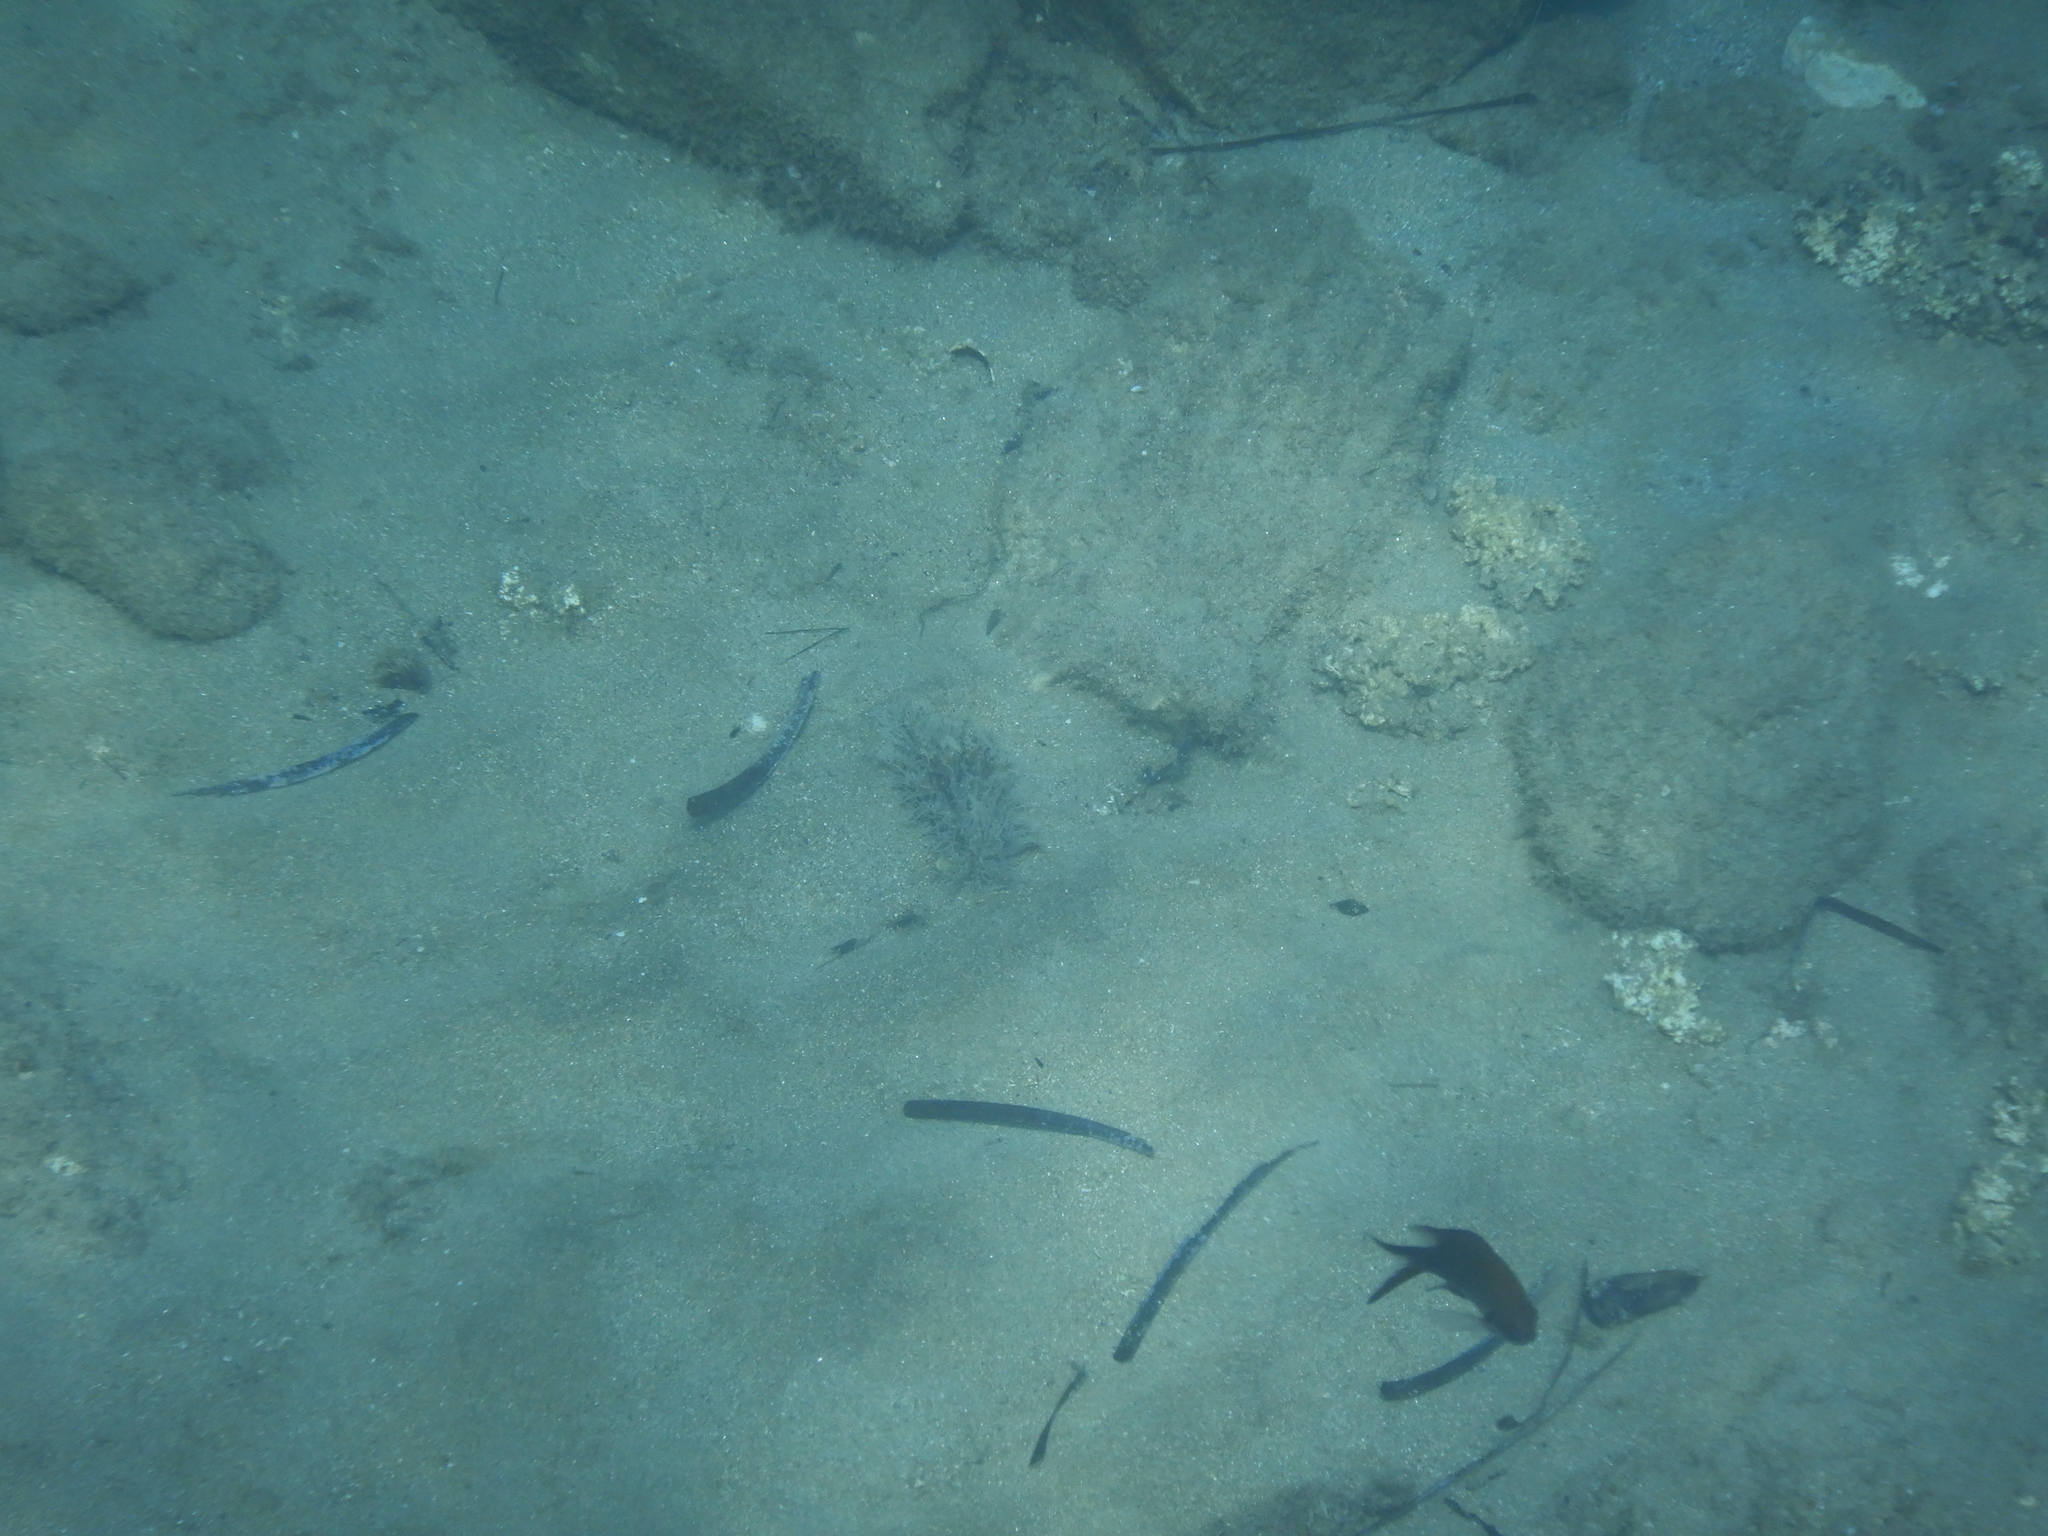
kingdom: Animalia
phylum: Mollusca
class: Gastropoda
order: Aplysiida
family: Aplysiidae
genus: Bursatella
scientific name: Bursatella leachii
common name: Shaggy sea hare
